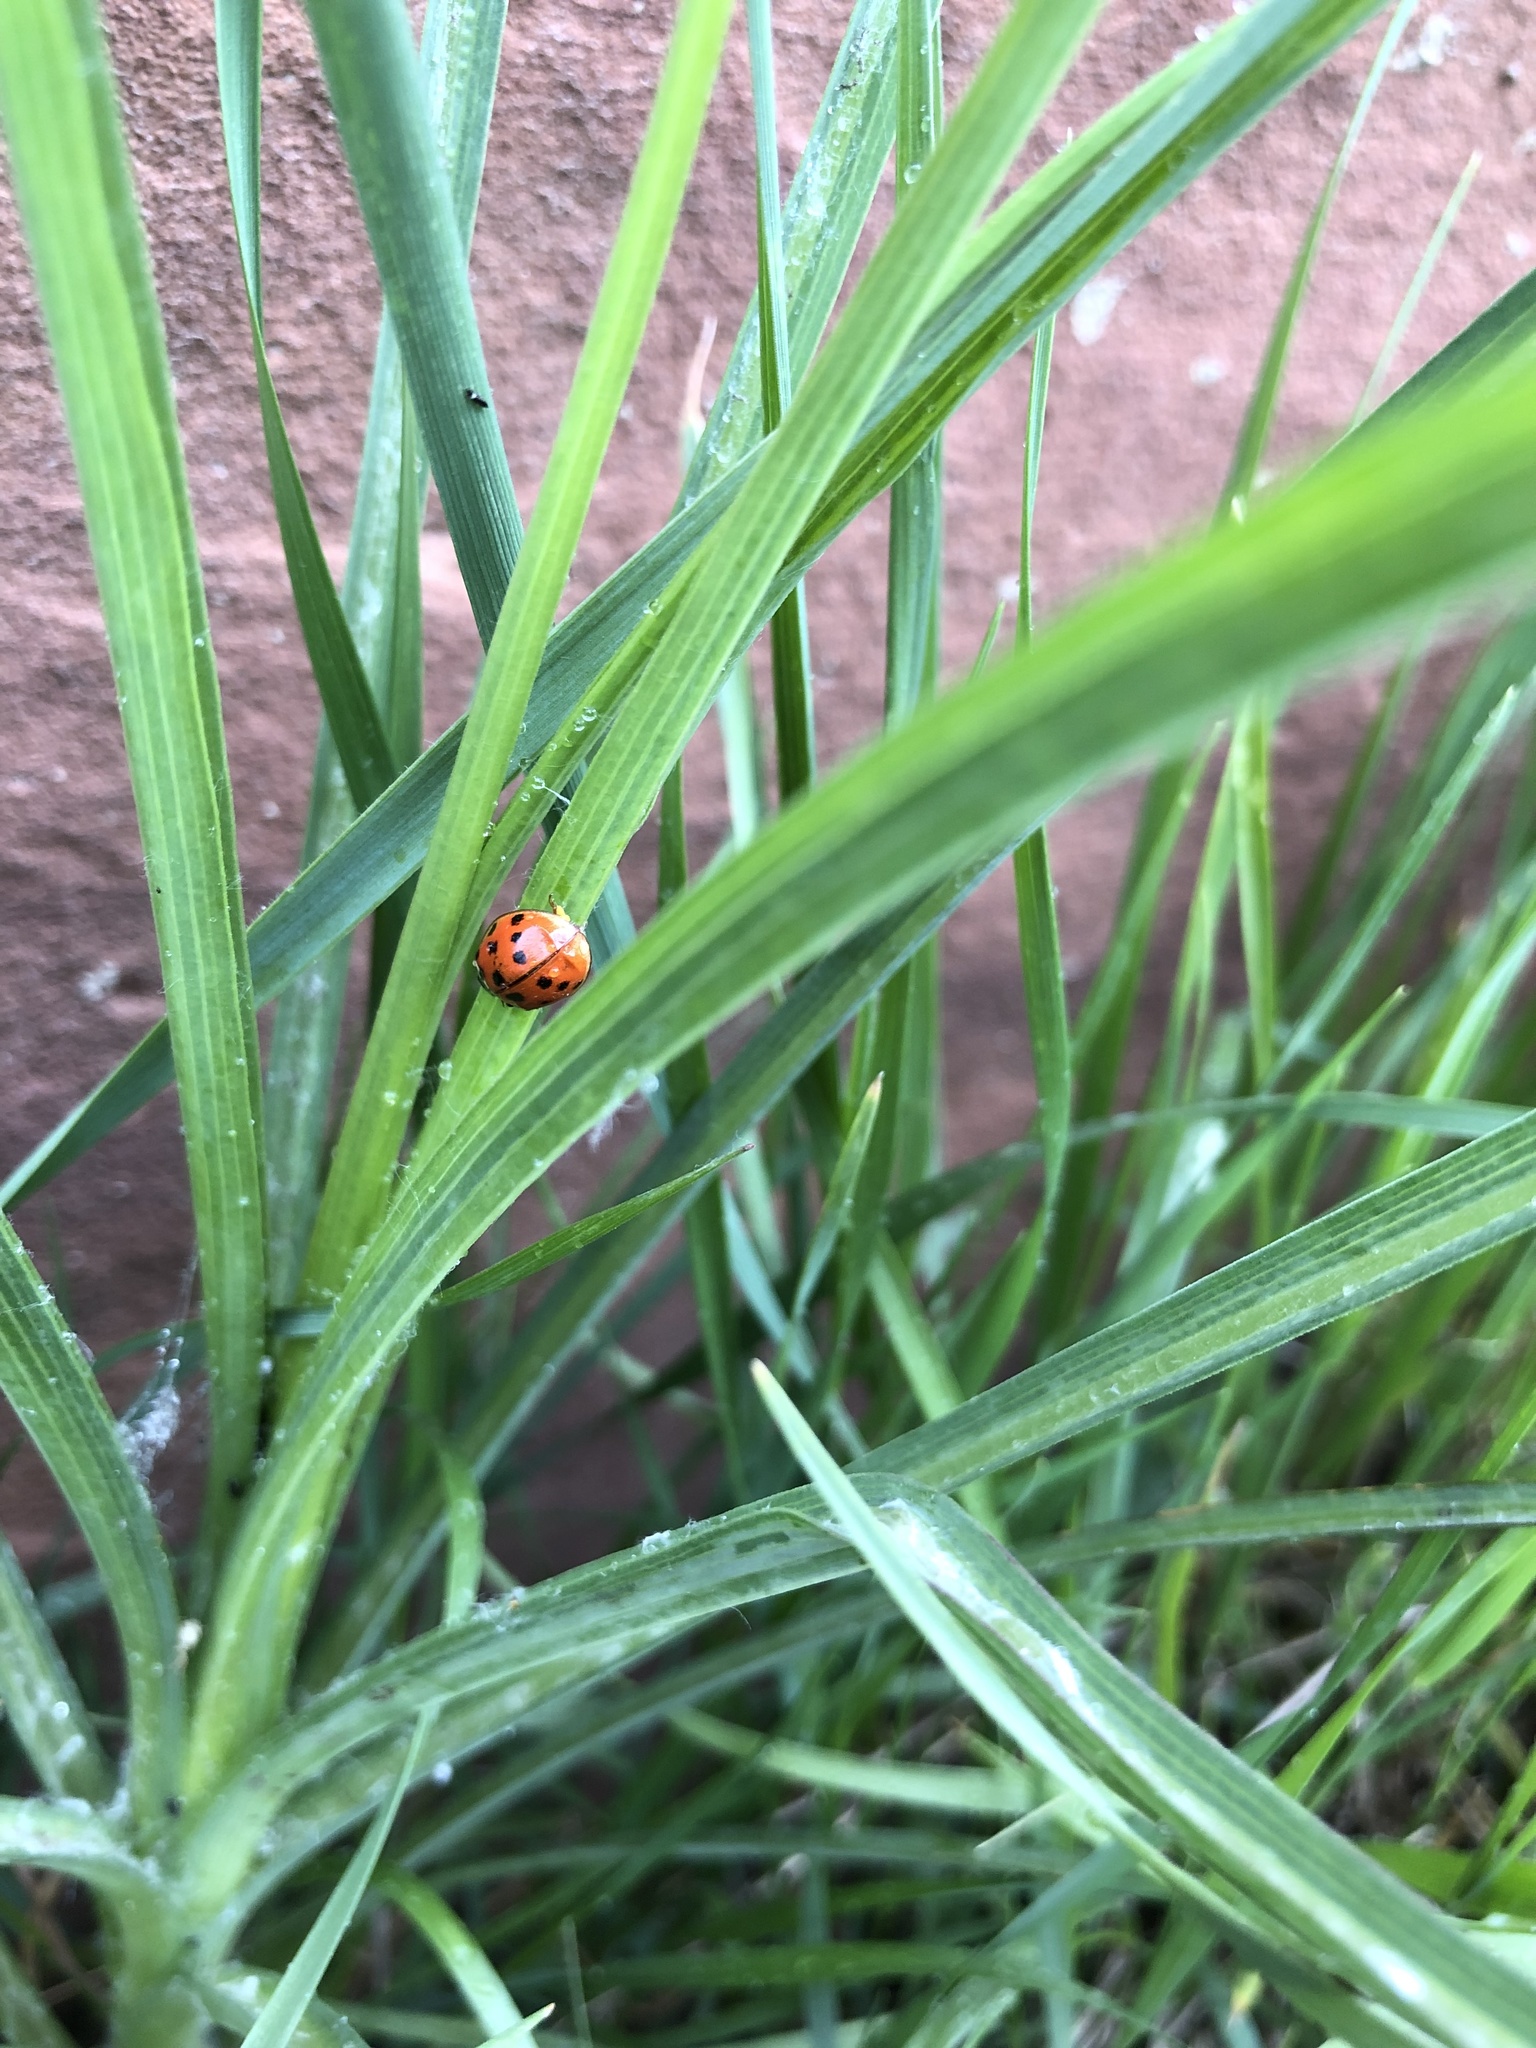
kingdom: Animalia
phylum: Arthropoda
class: Insecta
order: Coleoptera
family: Coccinellidae
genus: Harmonia
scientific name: Harmonia axyridis
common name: Harlequin ladybird
